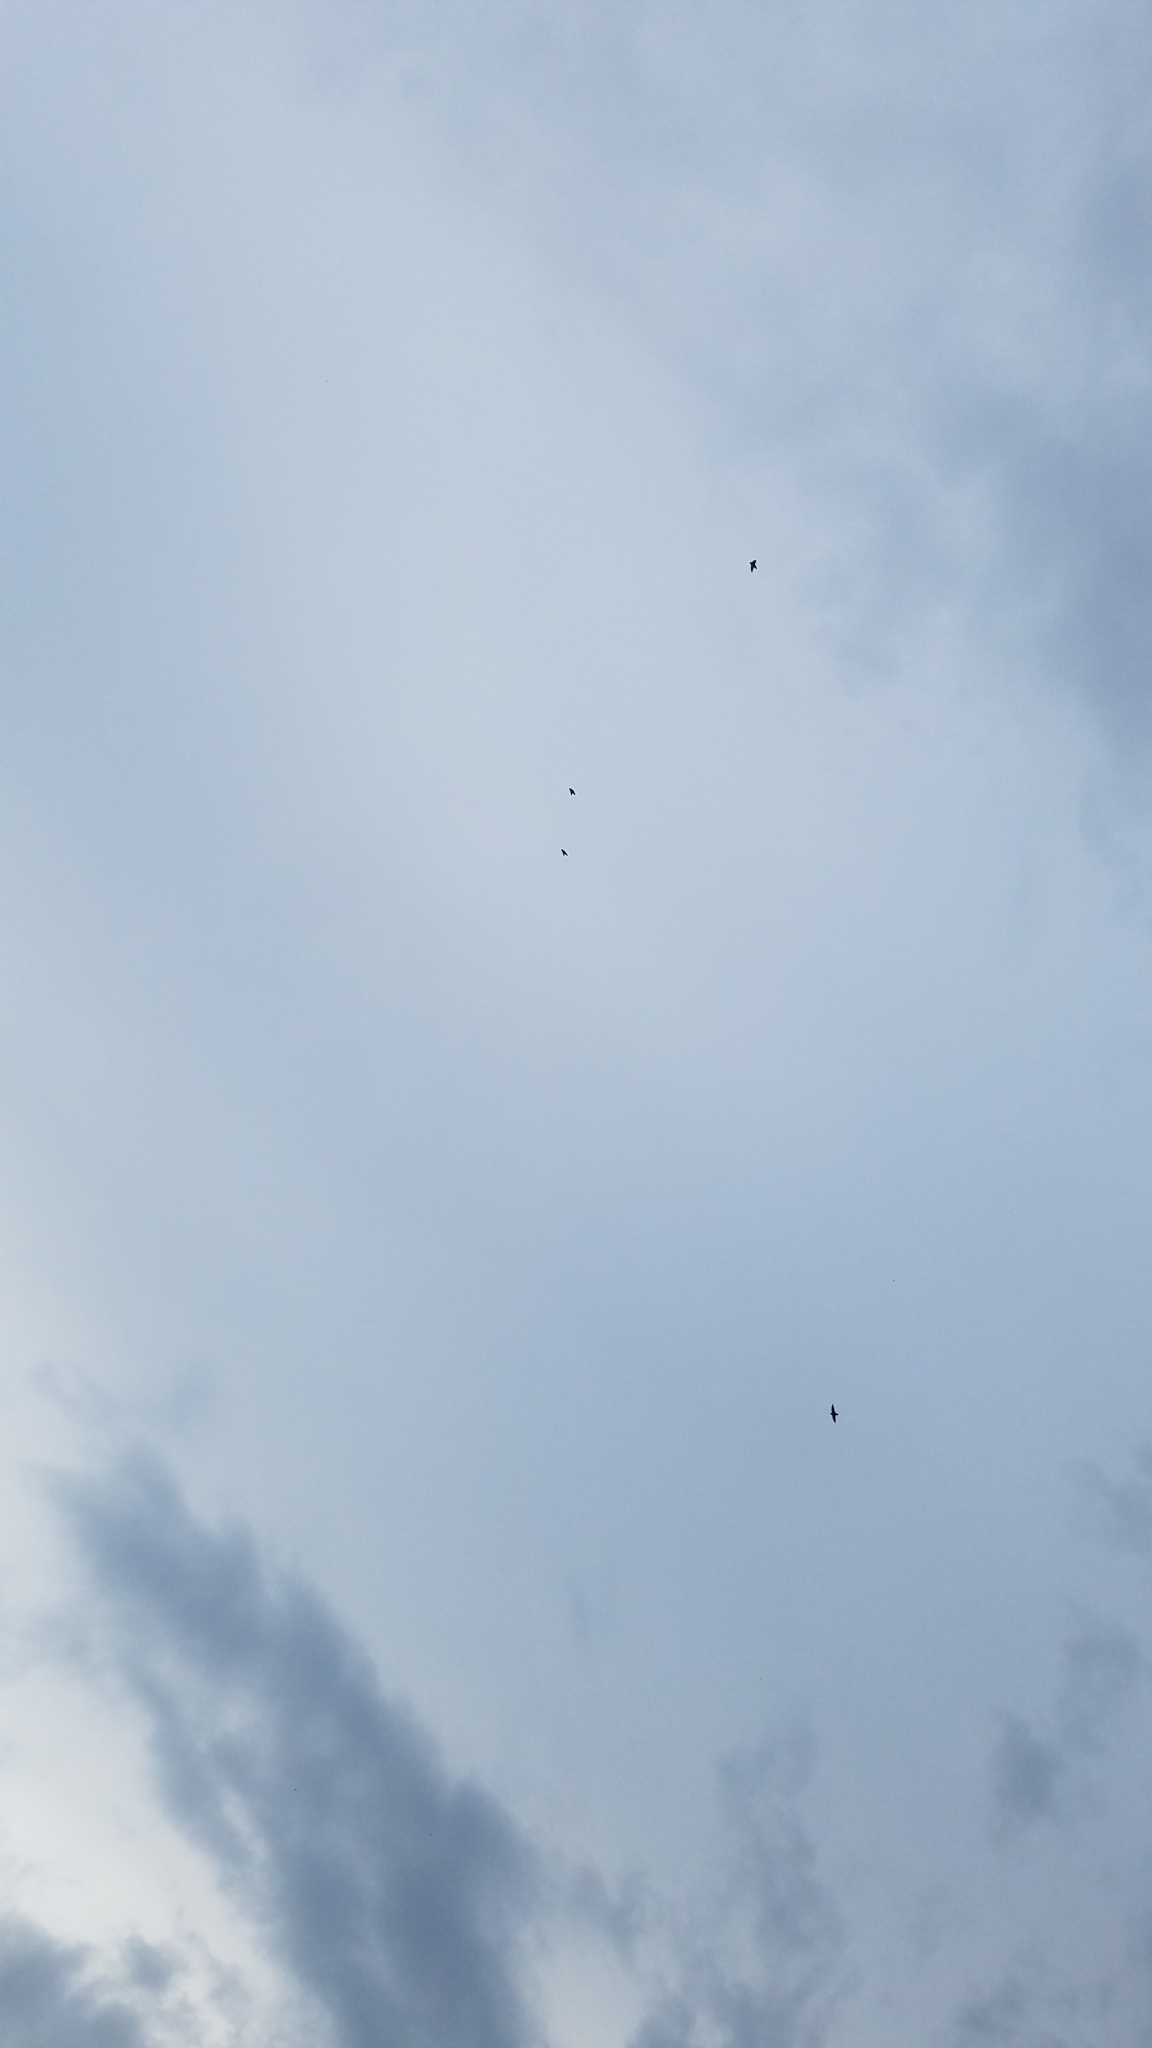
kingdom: Animalia
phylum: Chordata
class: Aves
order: Apodiformes
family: Apodidae
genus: Chaetura
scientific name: Chaetura pelagica
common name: Chimney swift
